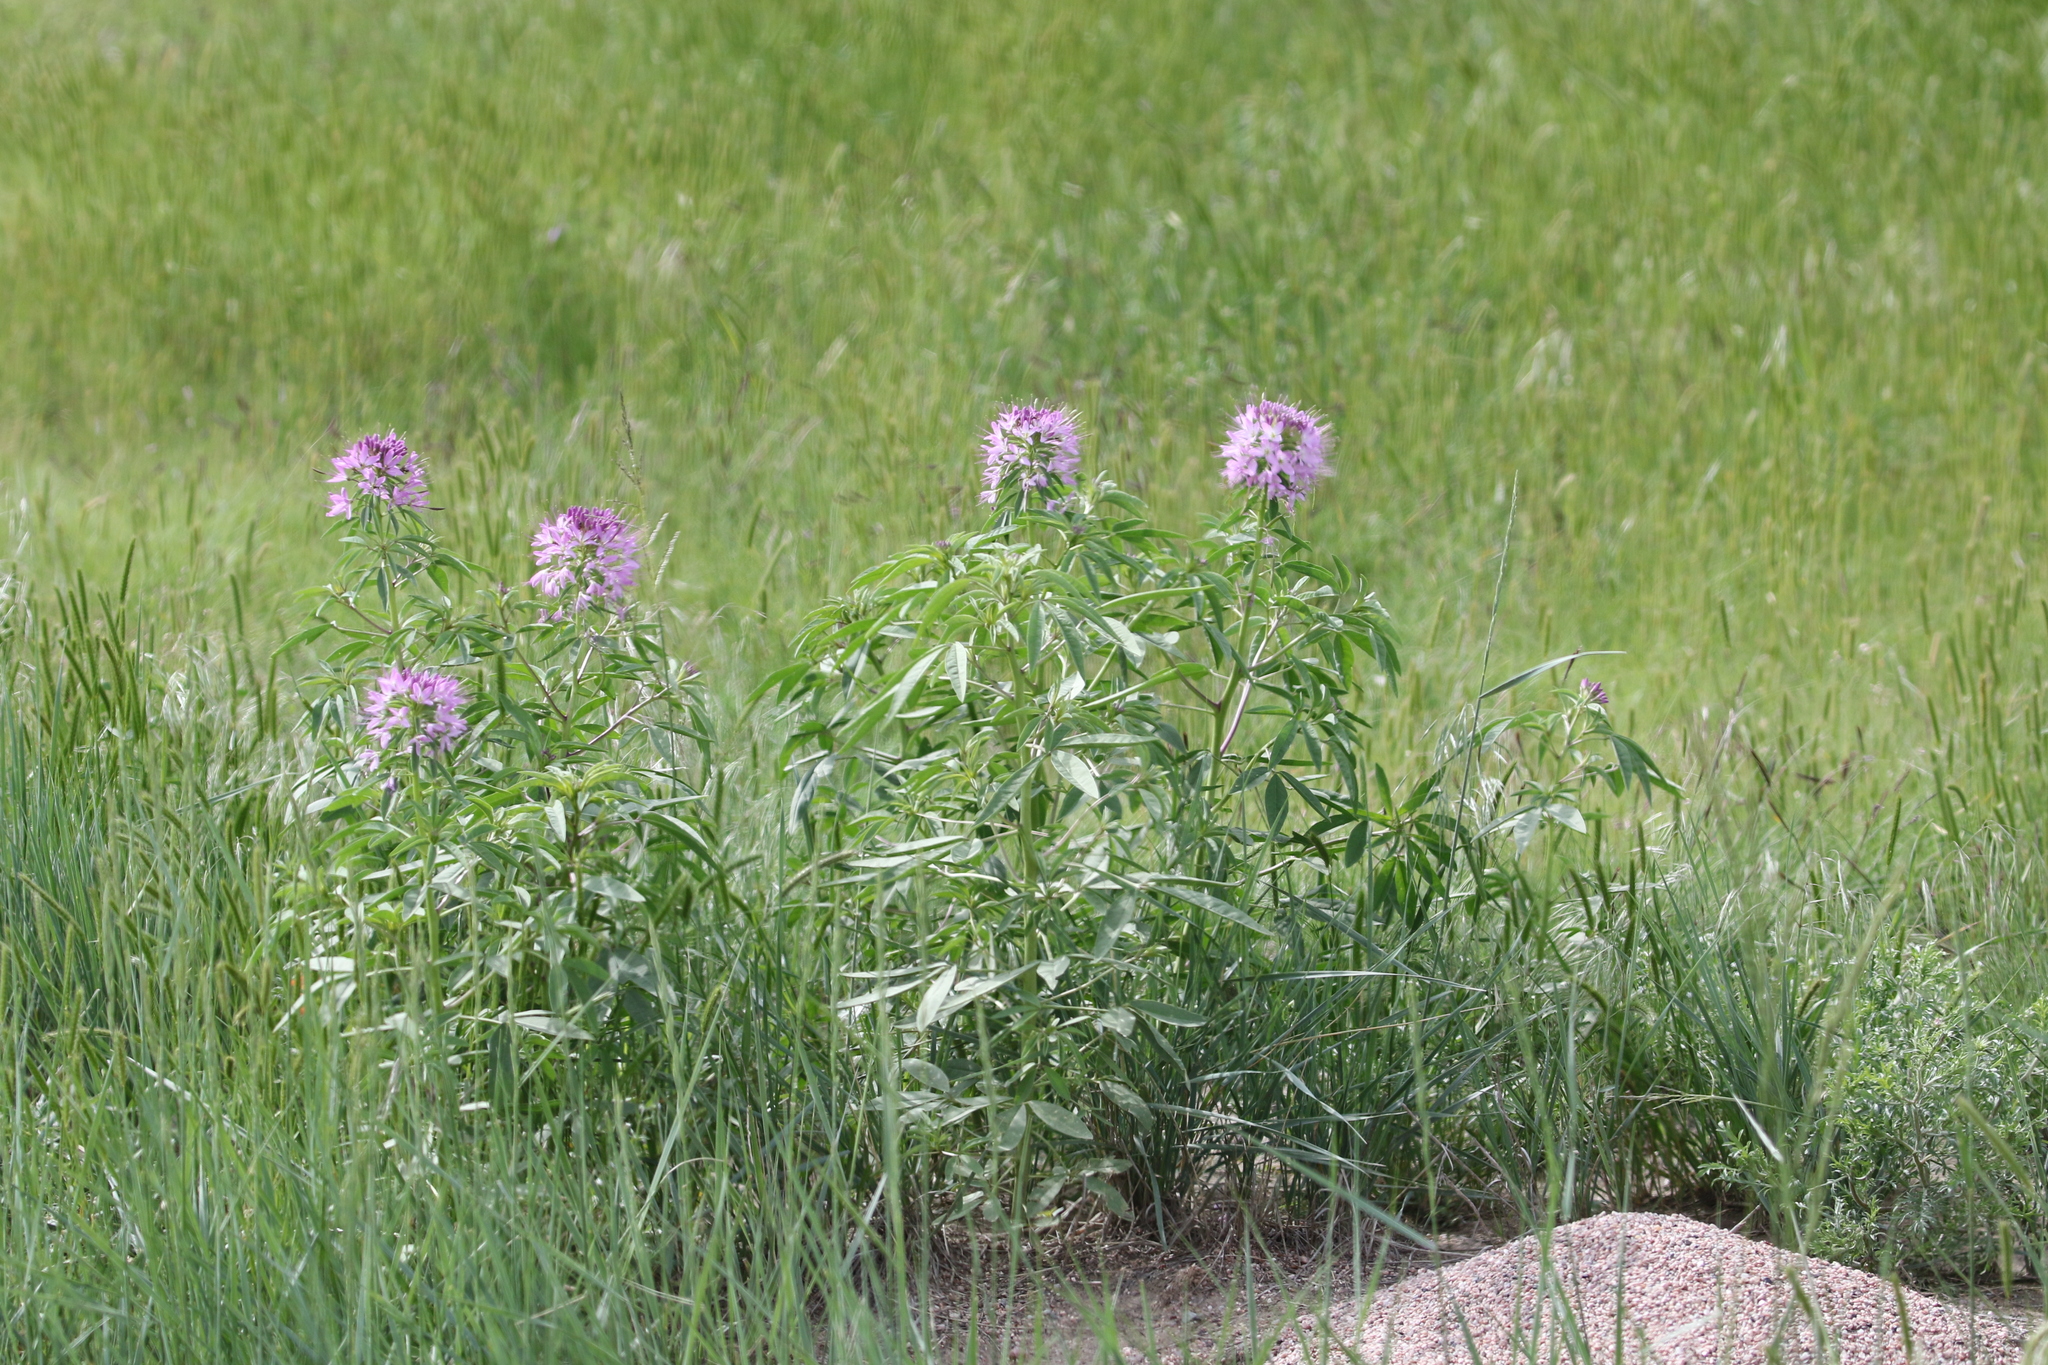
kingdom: Plantae
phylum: Tracheophyta
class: Magnoliopsida
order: Brassicales
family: Cleomaceae
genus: Cleomella
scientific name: Cleomella serrulata
